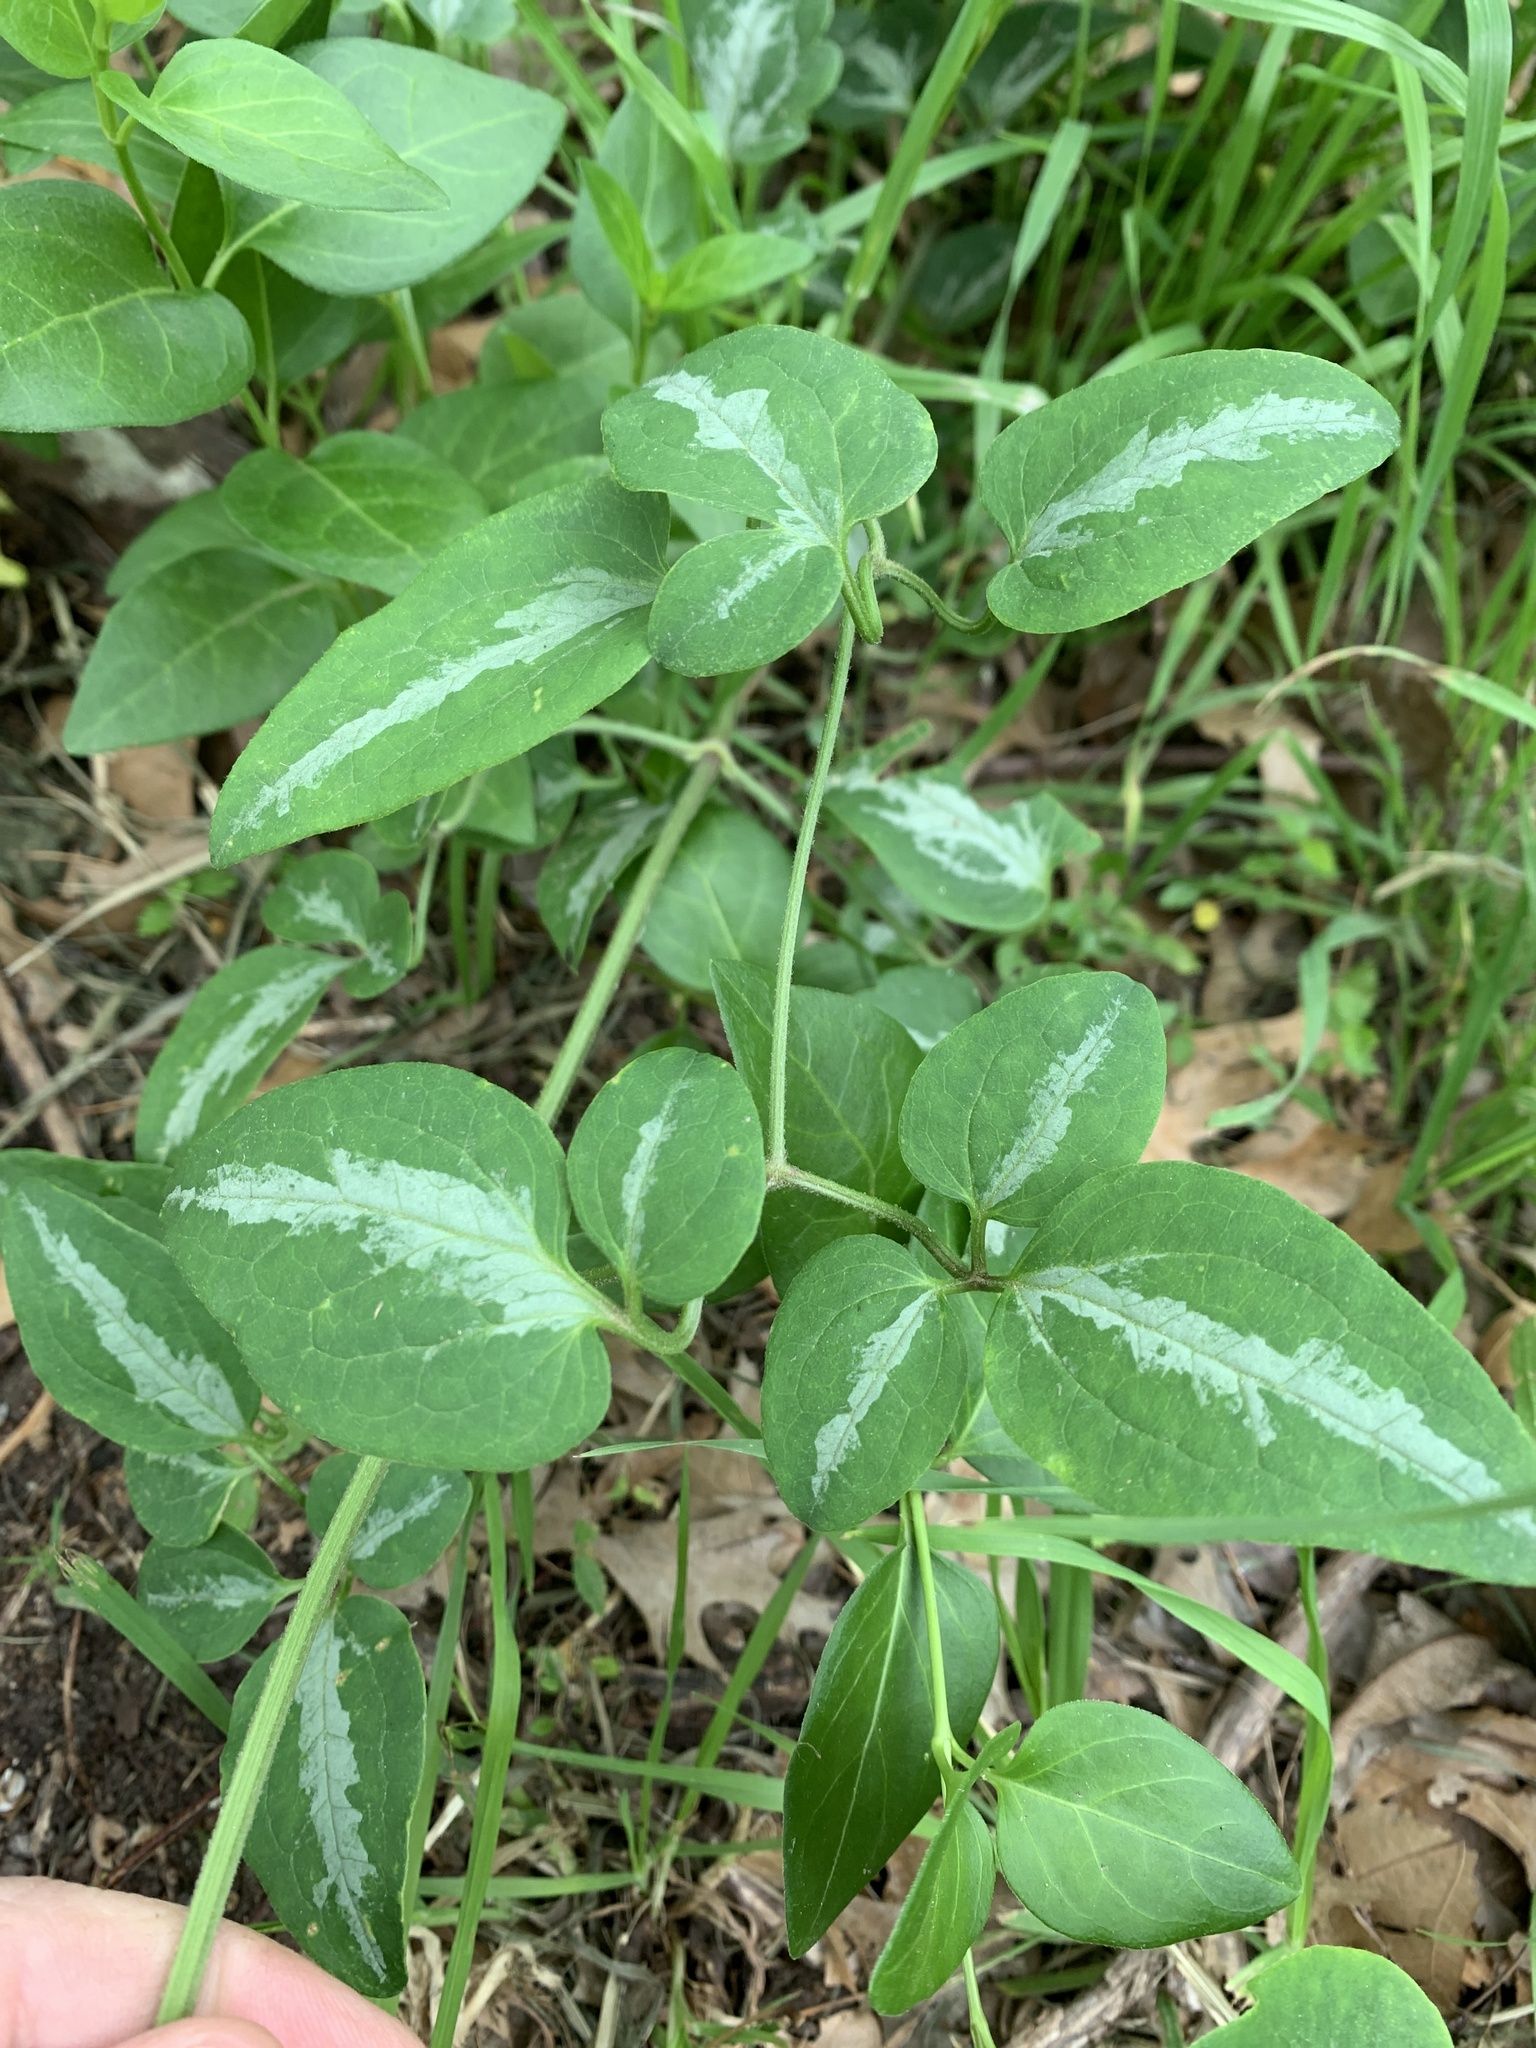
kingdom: Plantae
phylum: Tracheophyta
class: Magnoliopsida
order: Ranunculales
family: Ranunculaceae
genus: Clematis
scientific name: Clematis terniflora
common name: Sweet autumn clematis
